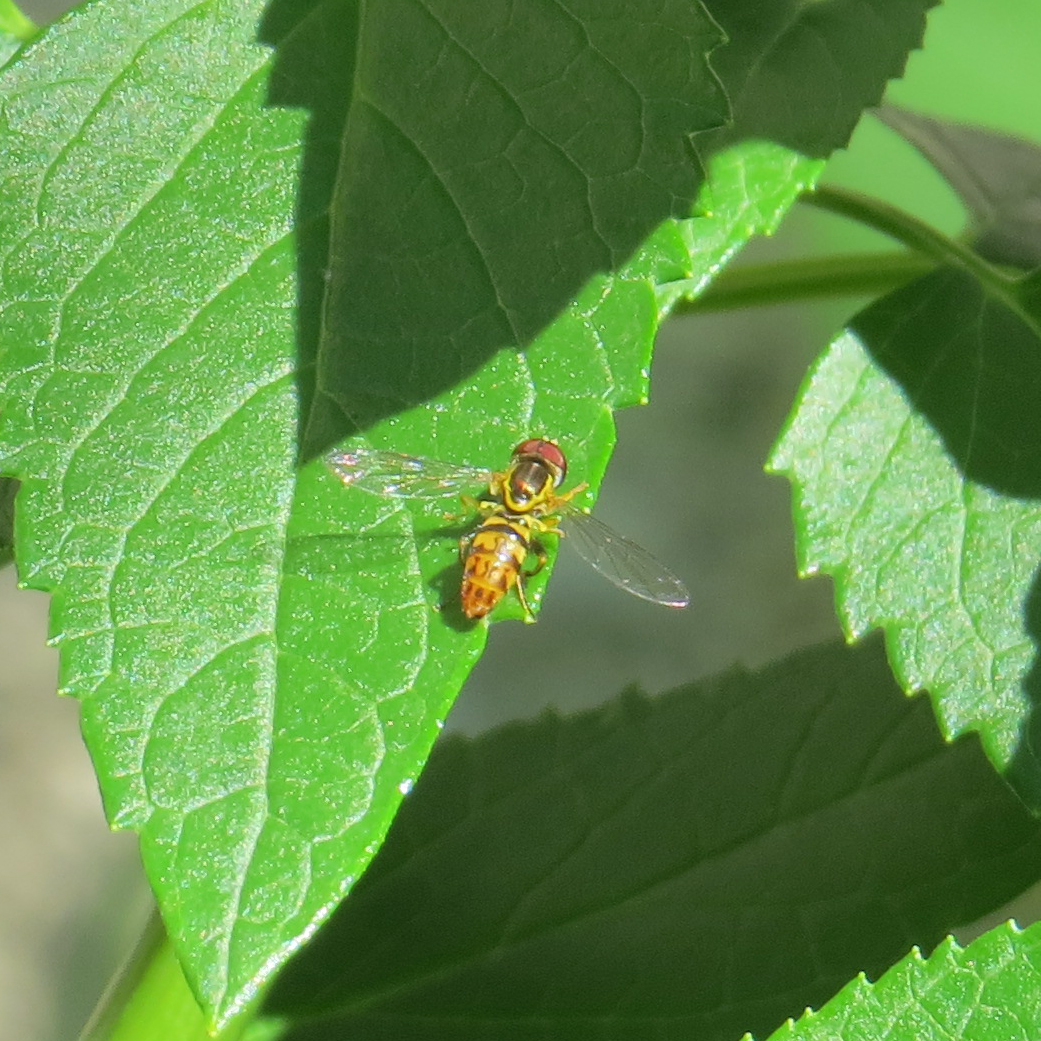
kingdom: Animalia
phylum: Arthropoda
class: Insecta
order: Diptera
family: Syrphidae
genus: Toxomerus
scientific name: Toxomerus geminatus
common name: Eastern calligrapher
